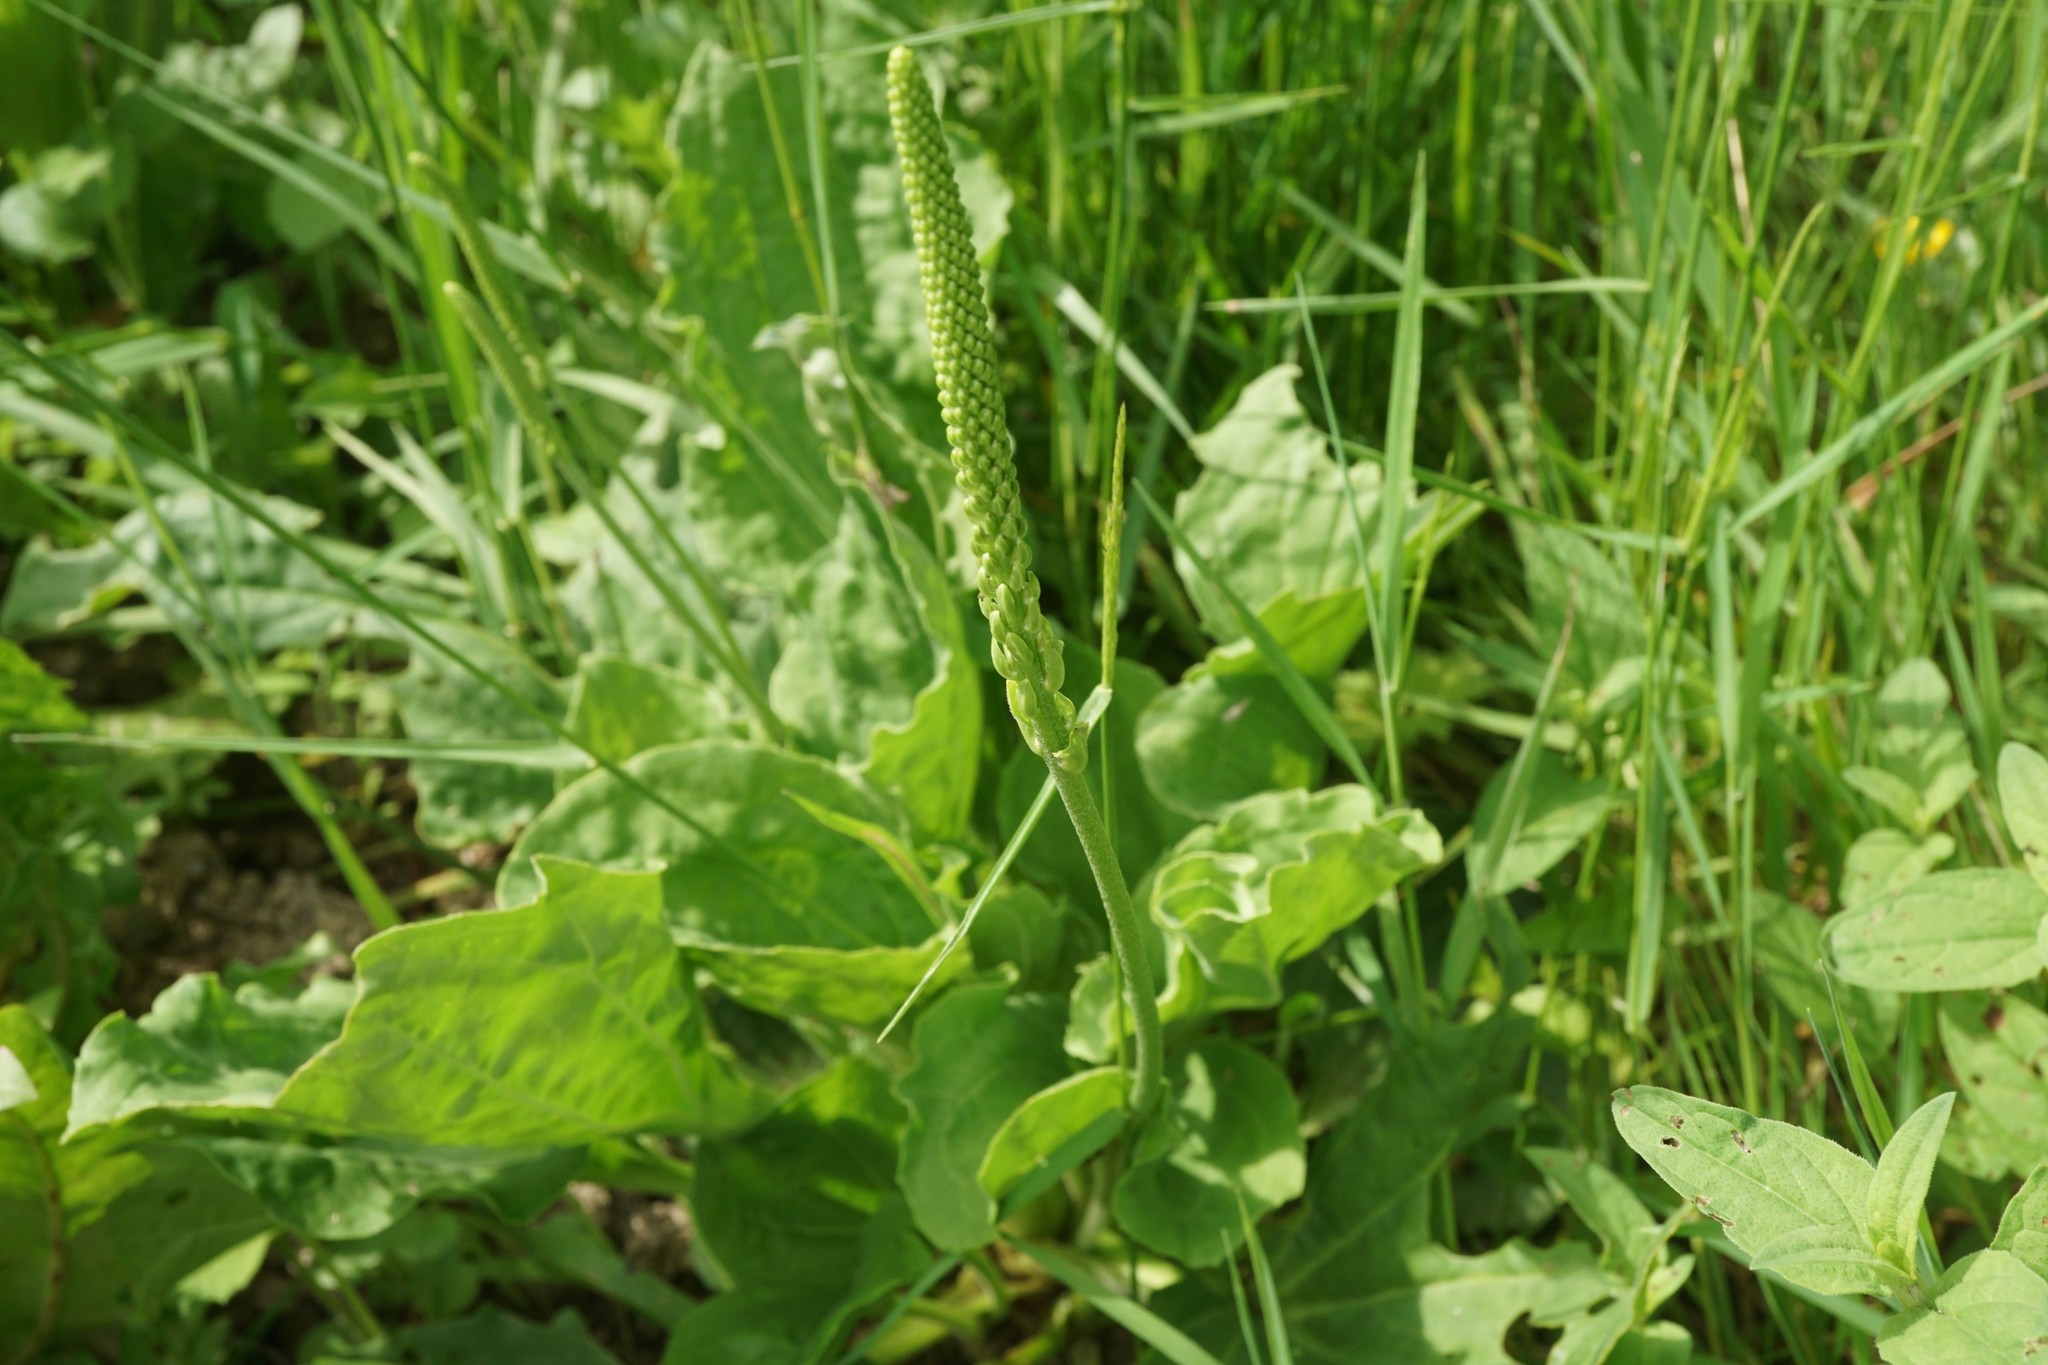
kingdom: Plantae
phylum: Tracheophyta
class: Magnoliopsida
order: Lamiales
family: Plantaginaceae
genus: Plantago
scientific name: Plantago major
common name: Common plantain
